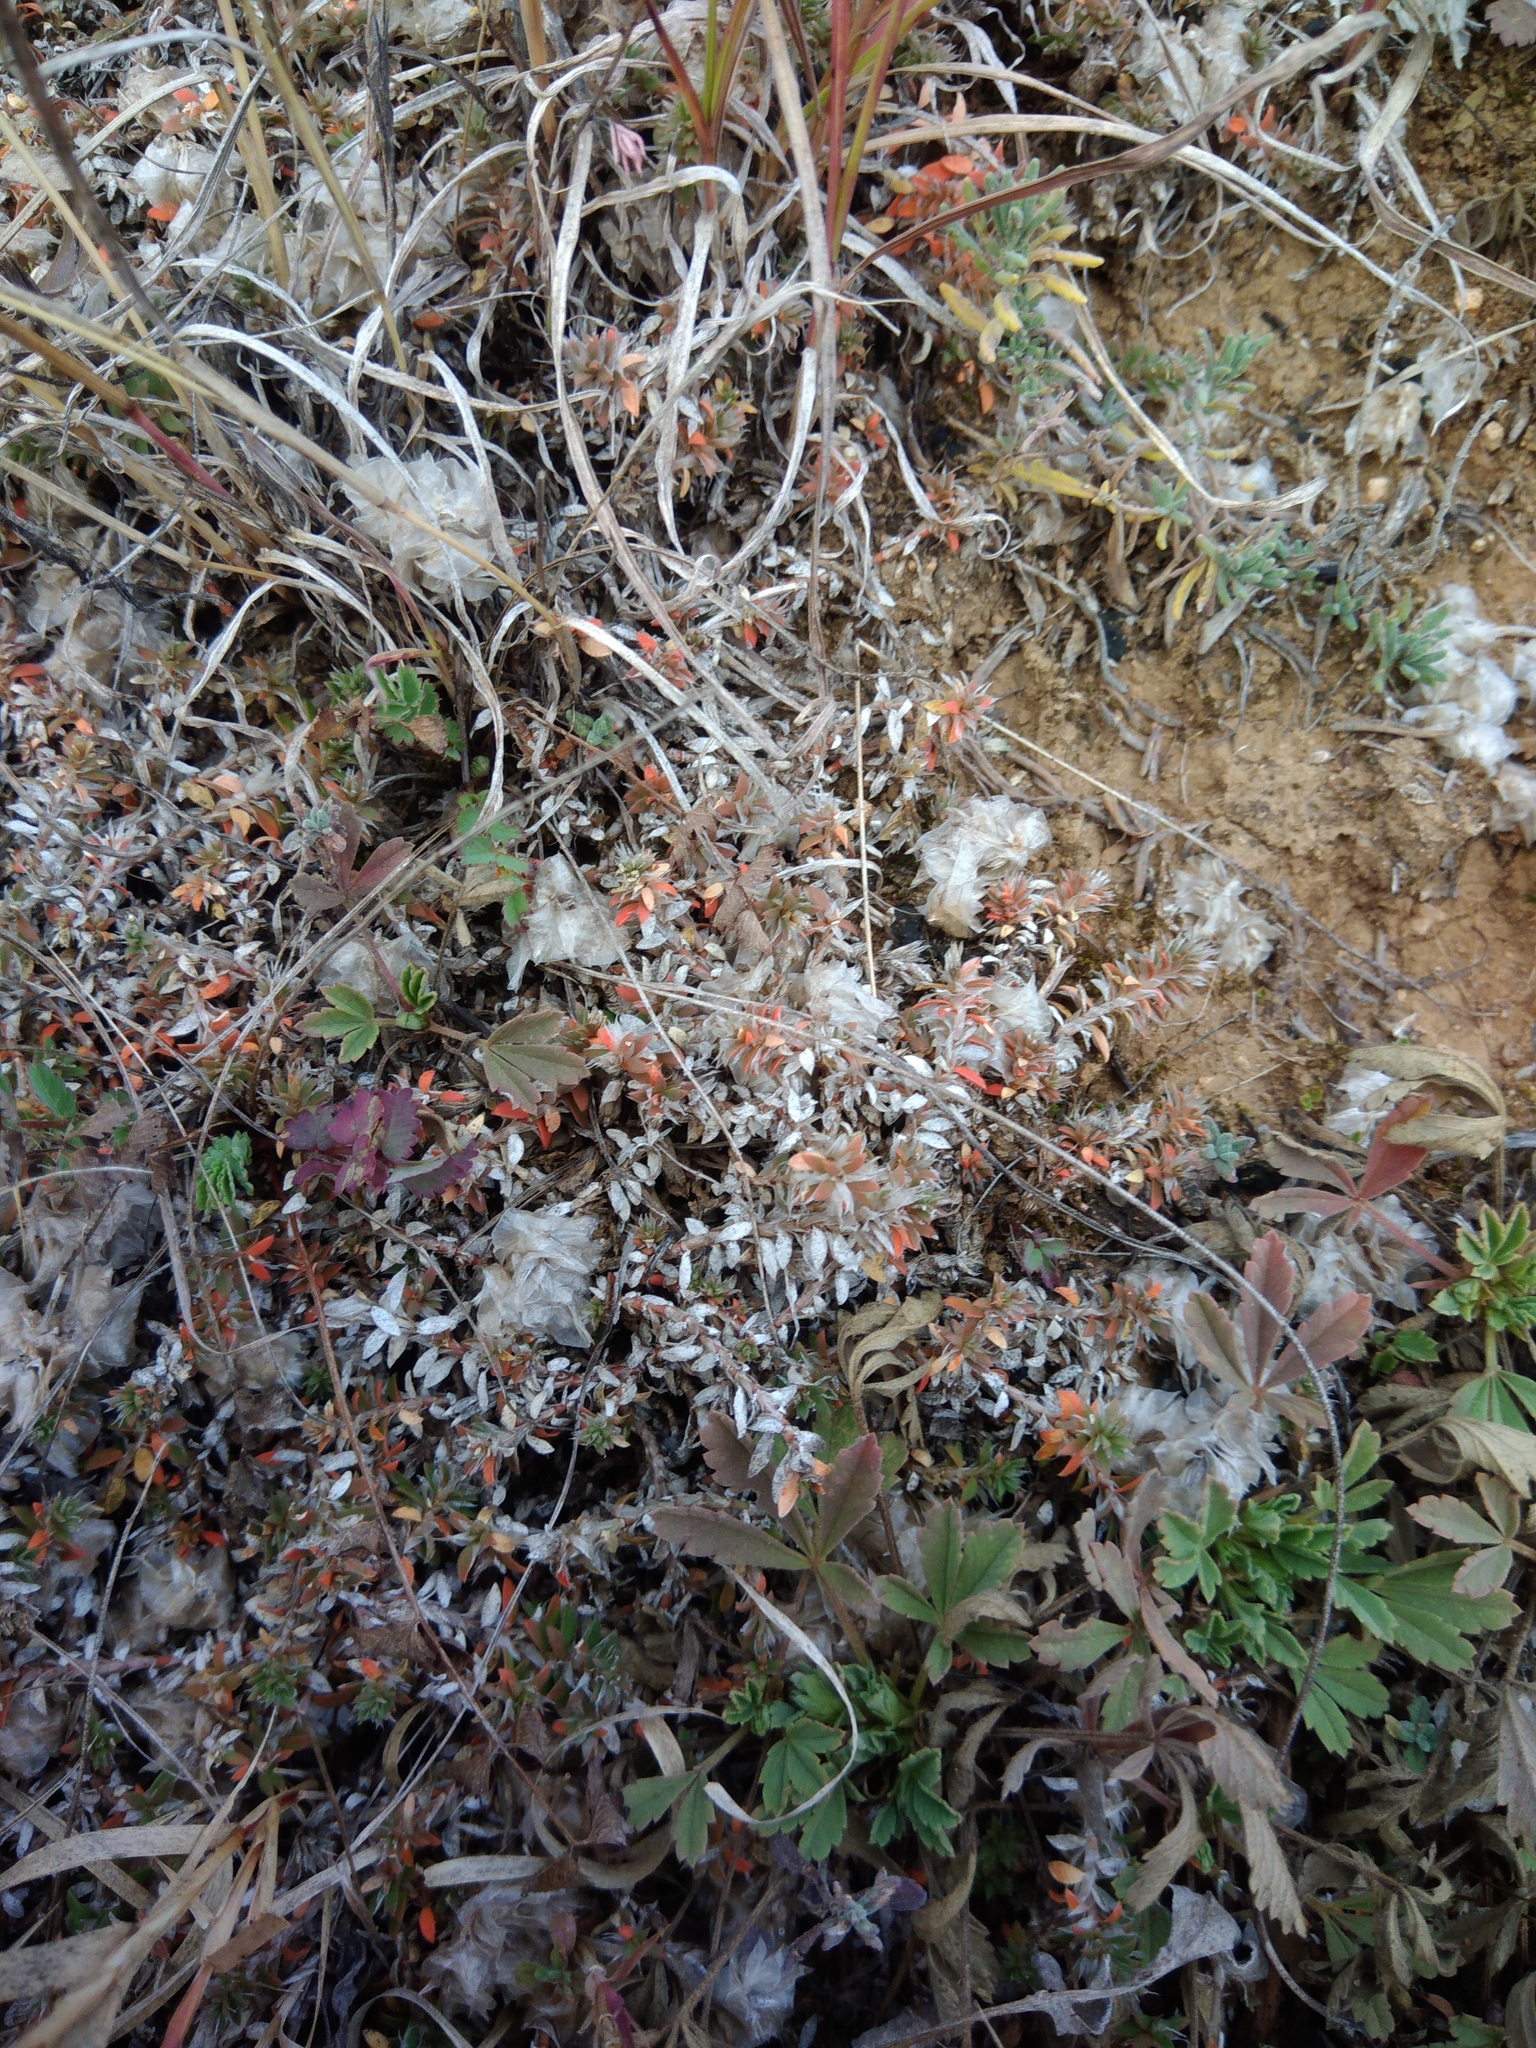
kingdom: Plantae
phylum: Tracheophyta
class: Magnoliopsida
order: Caryophyllales
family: Caryophyllaceae
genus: Paronychia
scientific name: Paronychia cephalotes
